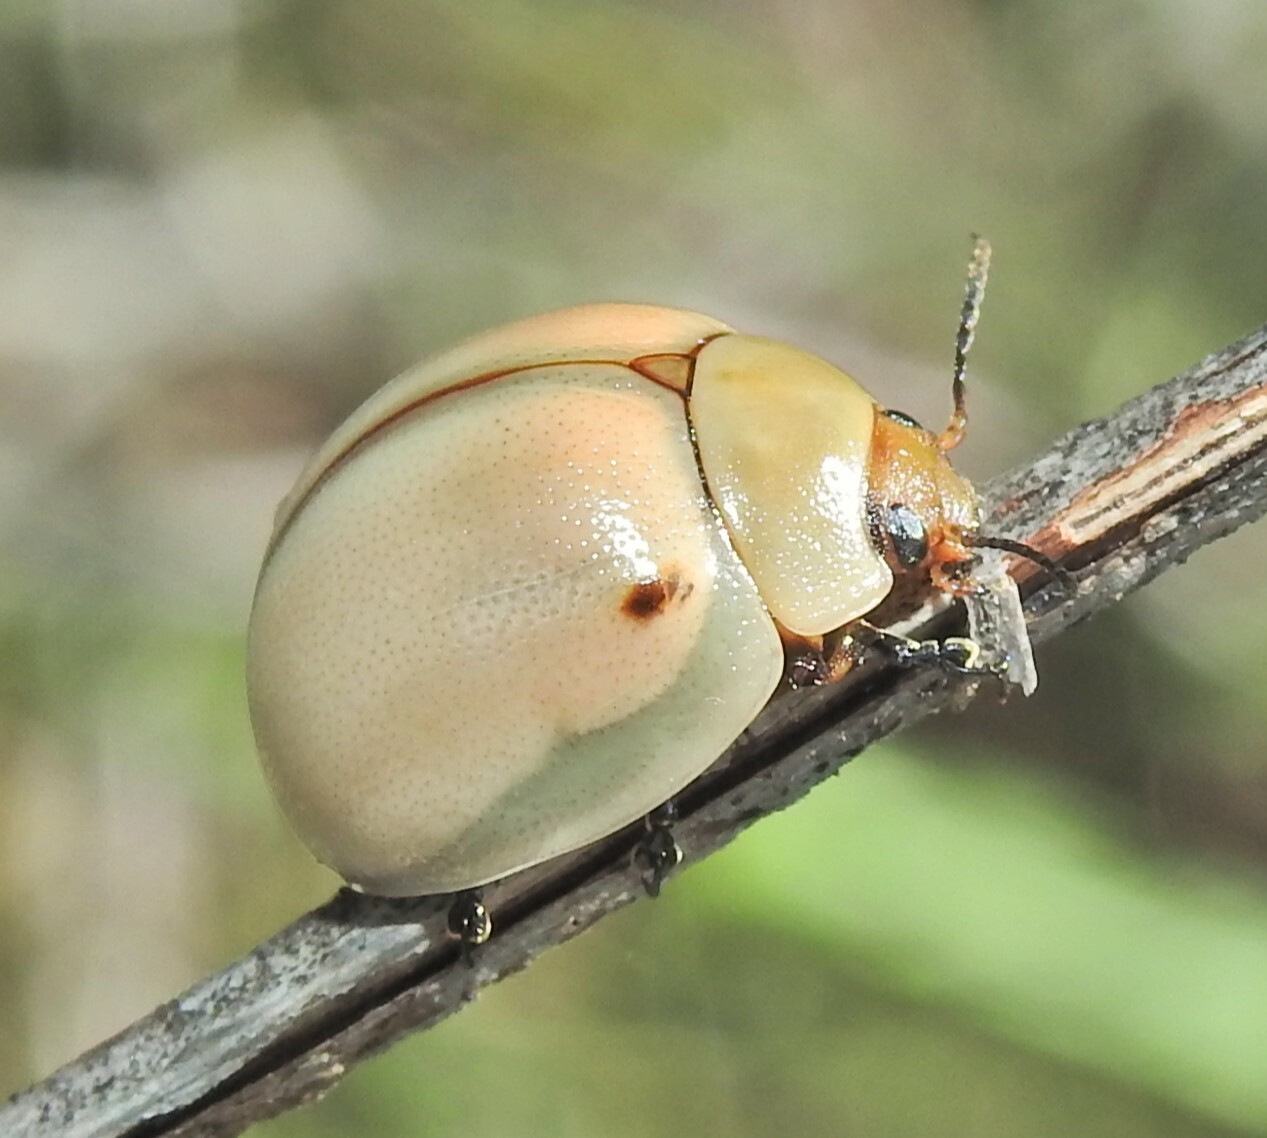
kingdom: Animalia
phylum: Arthropoda
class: Insecta
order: Coleoptera
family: Chrysomelidae
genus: Dicranosterna
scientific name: Dicranosterna
